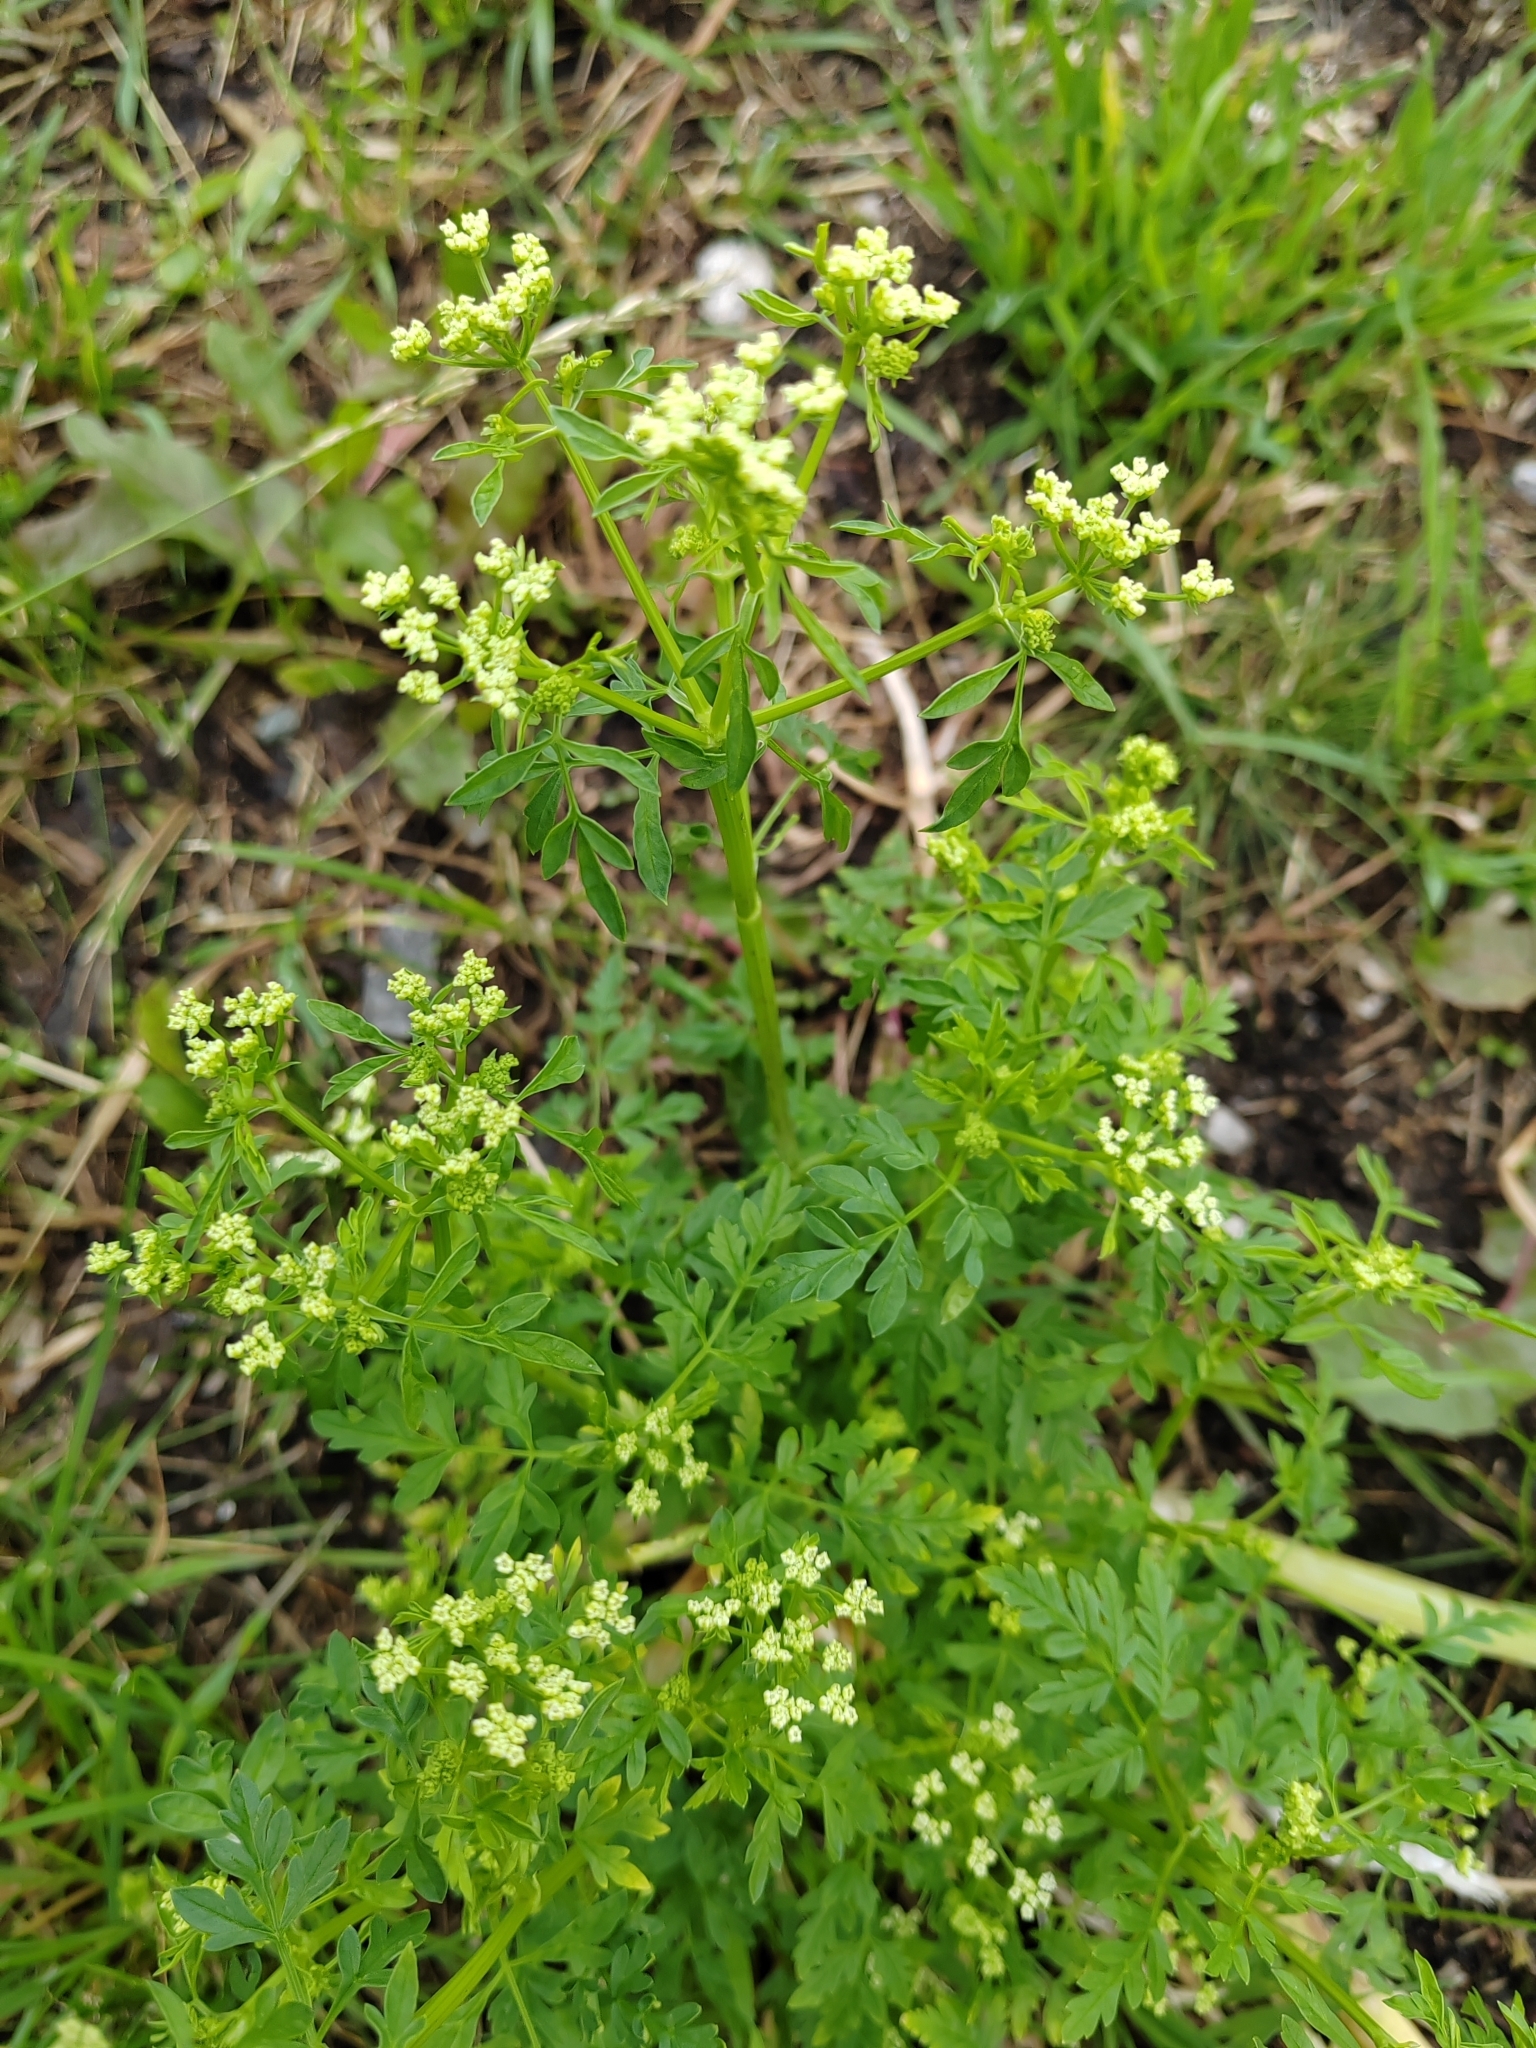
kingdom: Plantae
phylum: Tracheophyta
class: Magnoliopsida
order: Apiales
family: Apiaceae
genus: Anthriscus
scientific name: Anthriscus sylvestris
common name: Cow parsley
